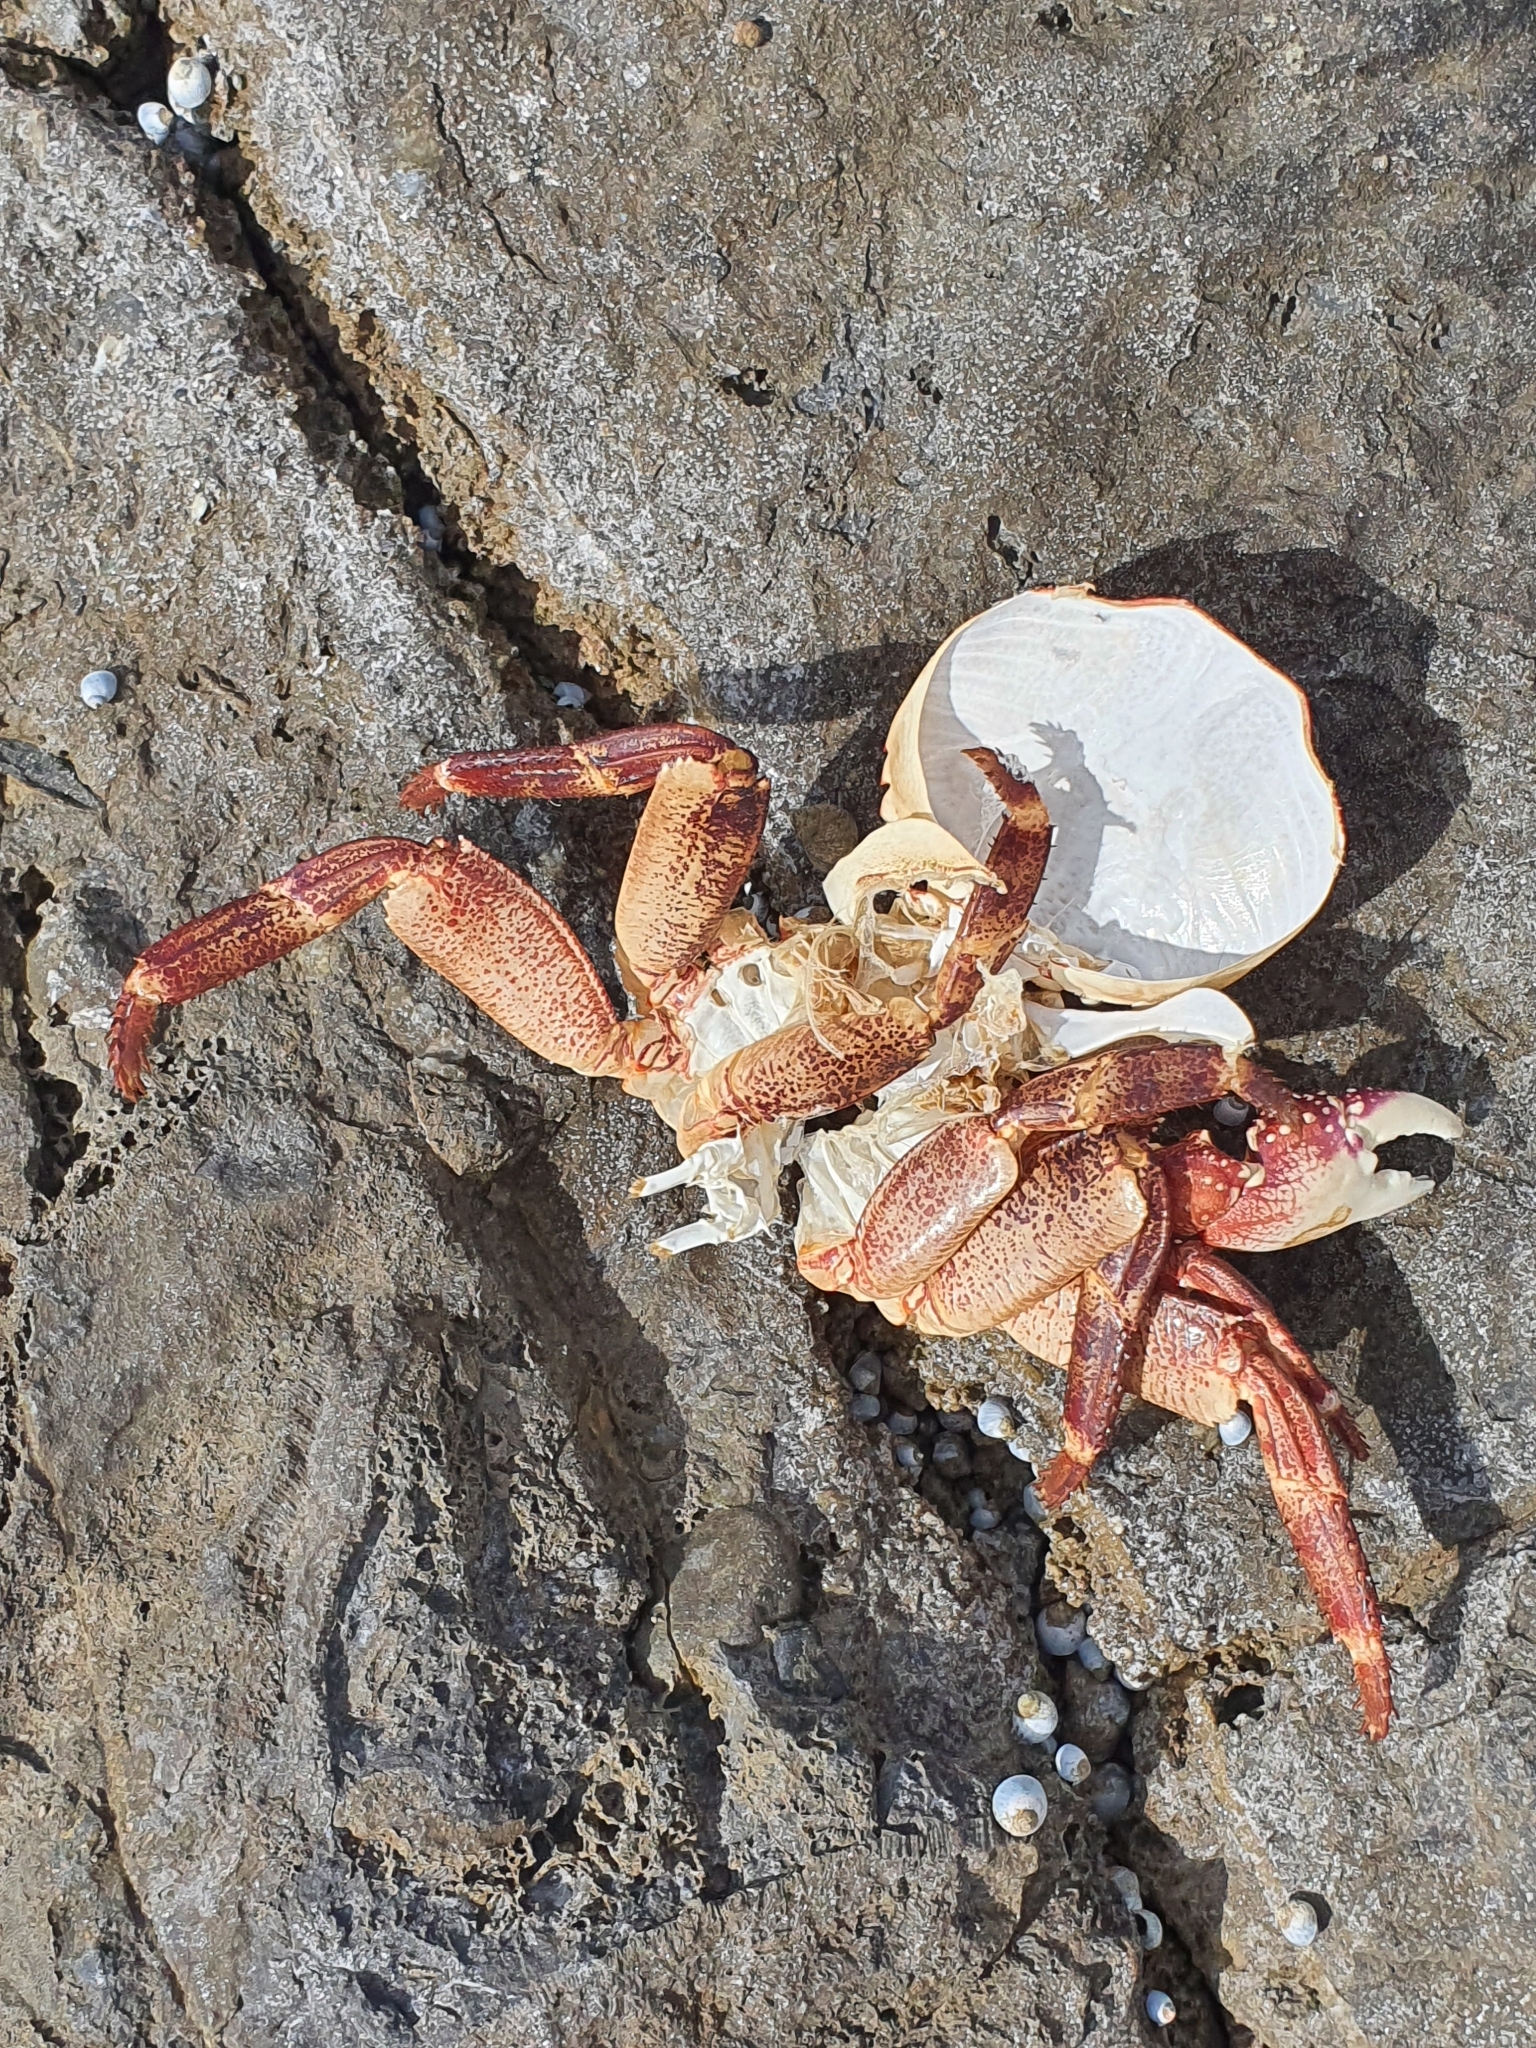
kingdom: Animalia
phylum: Arthropoda
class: Malacostraca
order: Decapoda
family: Grapsidae
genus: Leptograpsus
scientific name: Leptograpsus variegatus
